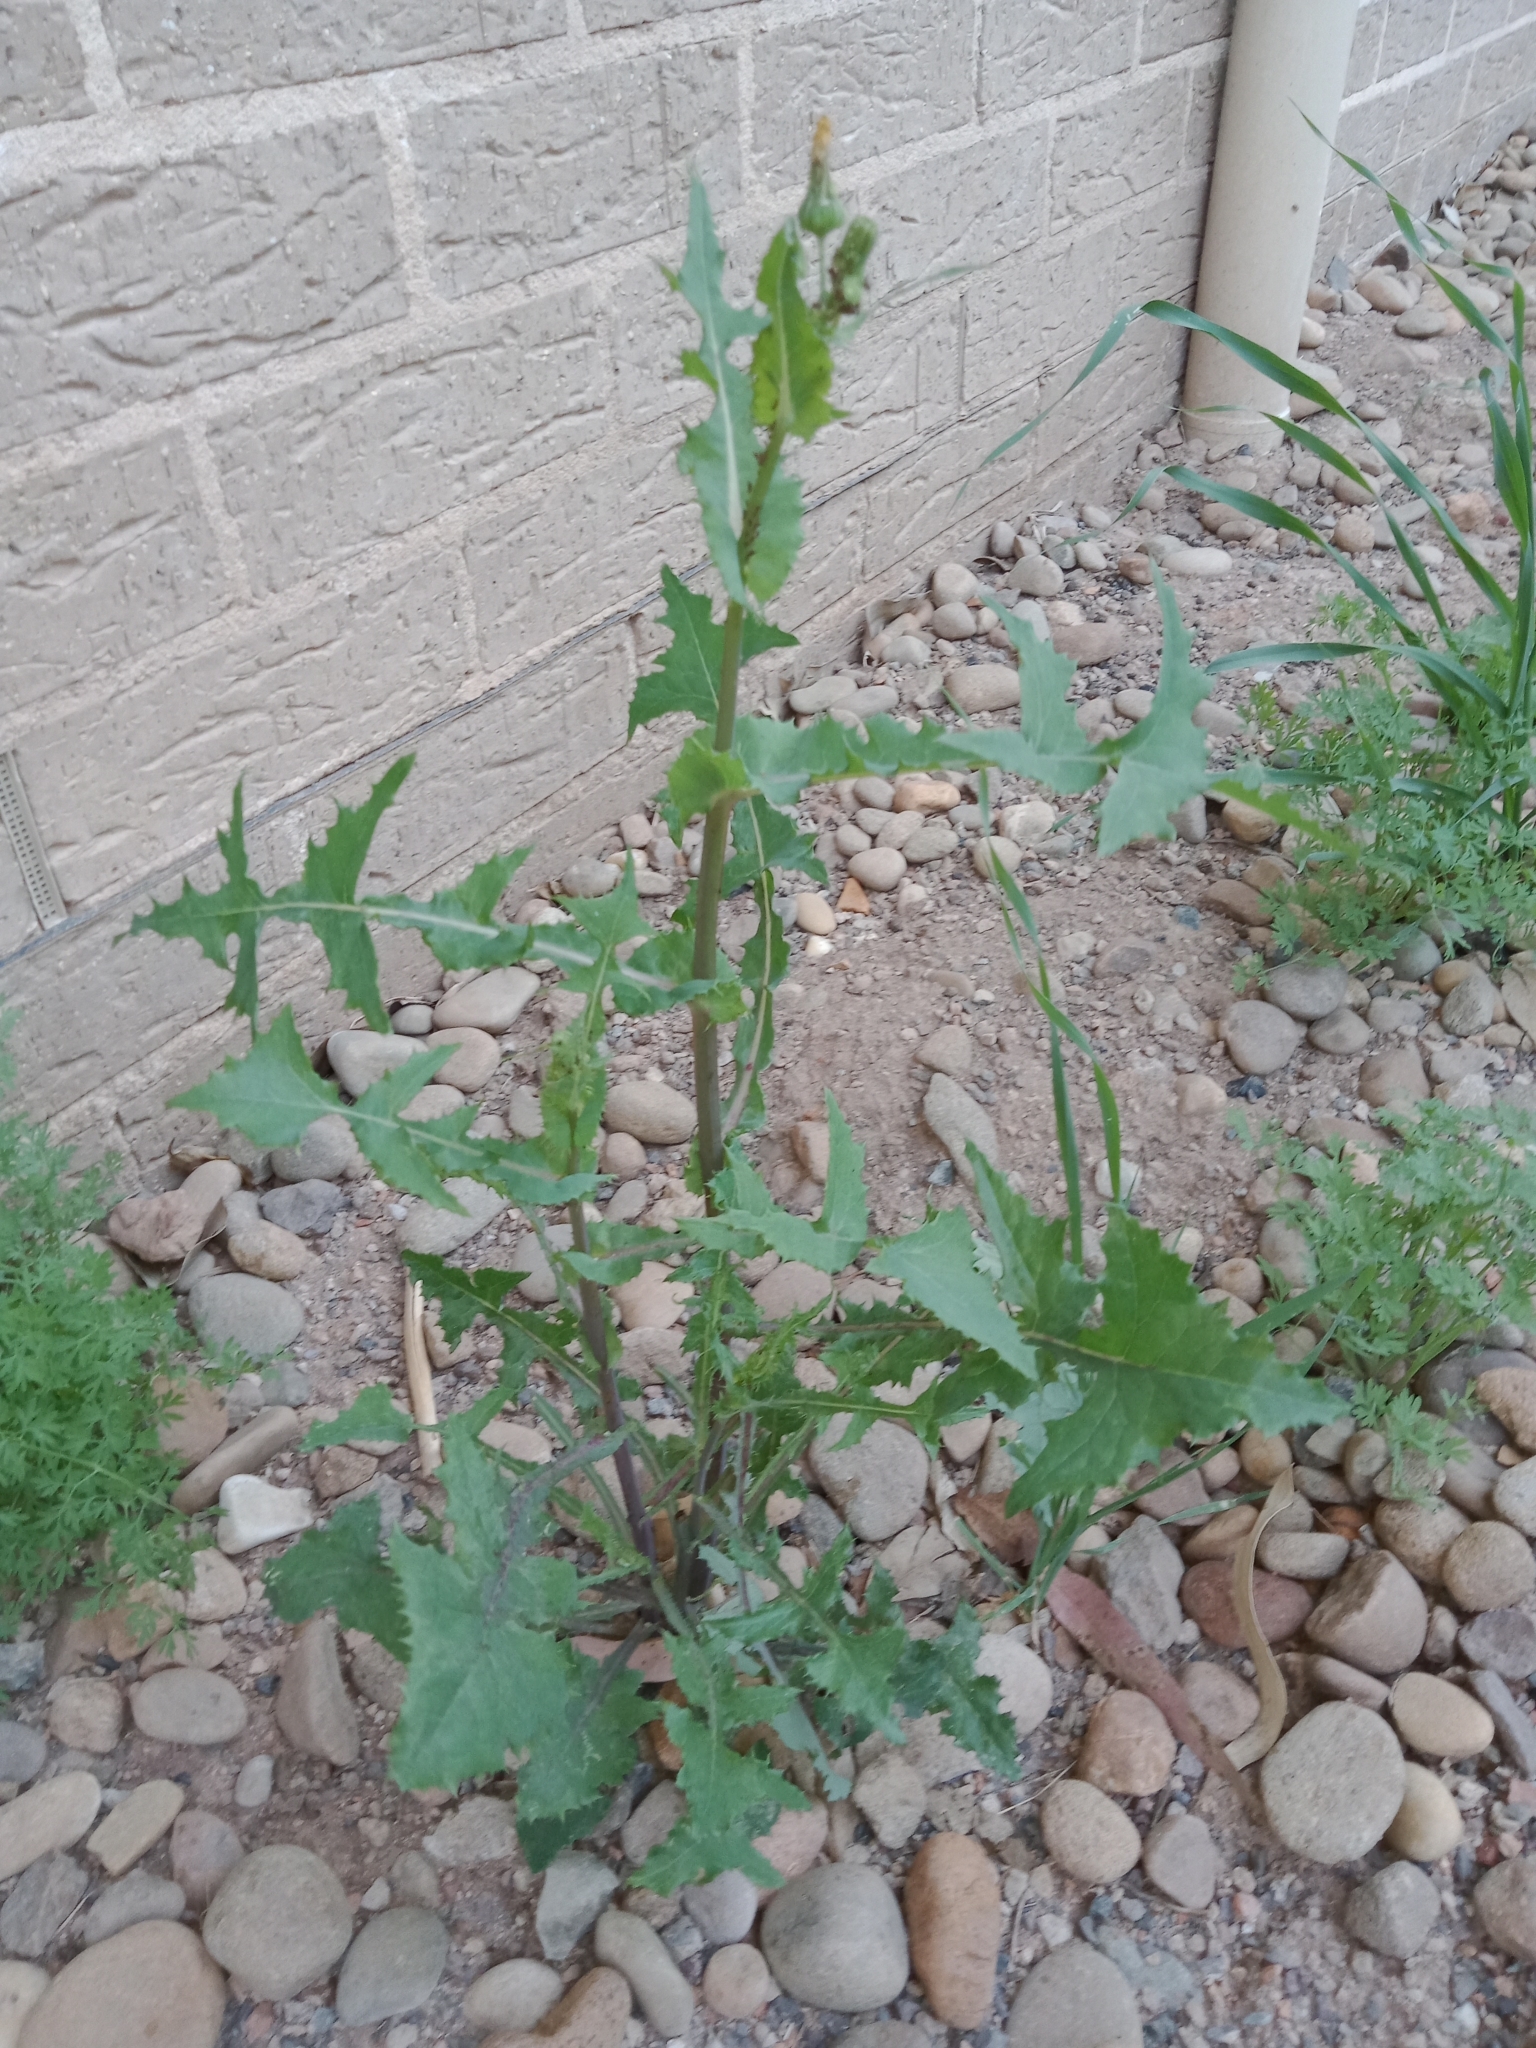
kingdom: Plantae
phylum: Tracheophyta
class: Magnoliopsida
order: Asterales
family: Asteraceae
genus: Sonchus
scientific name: Sonchus oleraceus
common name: Common sowthistle
